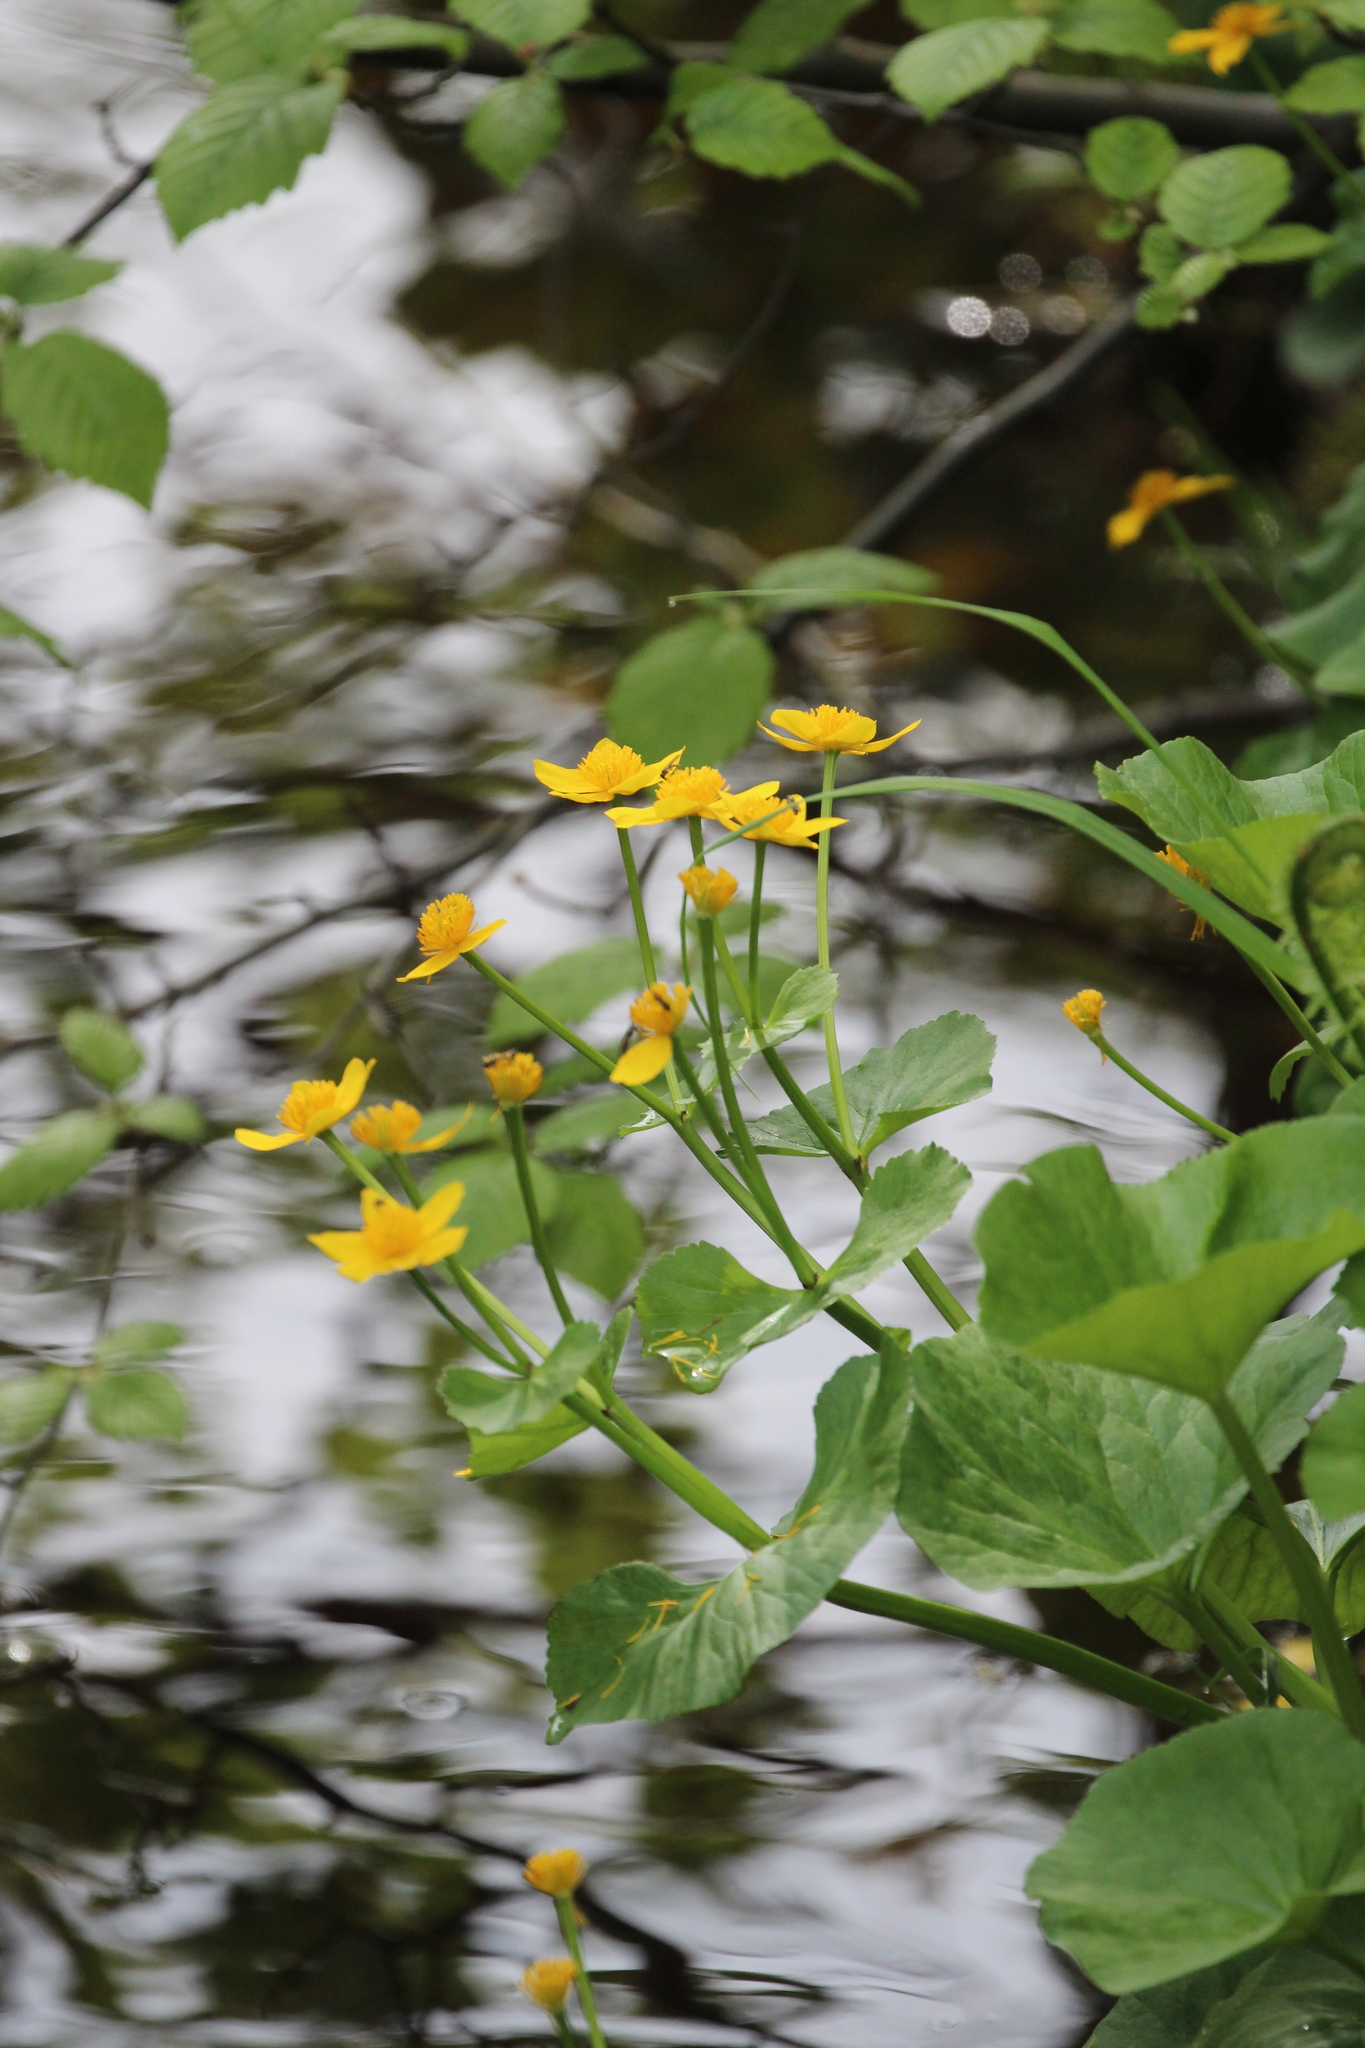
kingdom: Plantae
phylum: Tracheophyta
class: Magnoliopsida
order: Ranunculales
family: Ranunculaceae
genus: Caltha
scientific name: Caltha palustris
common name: Marsh marigold
